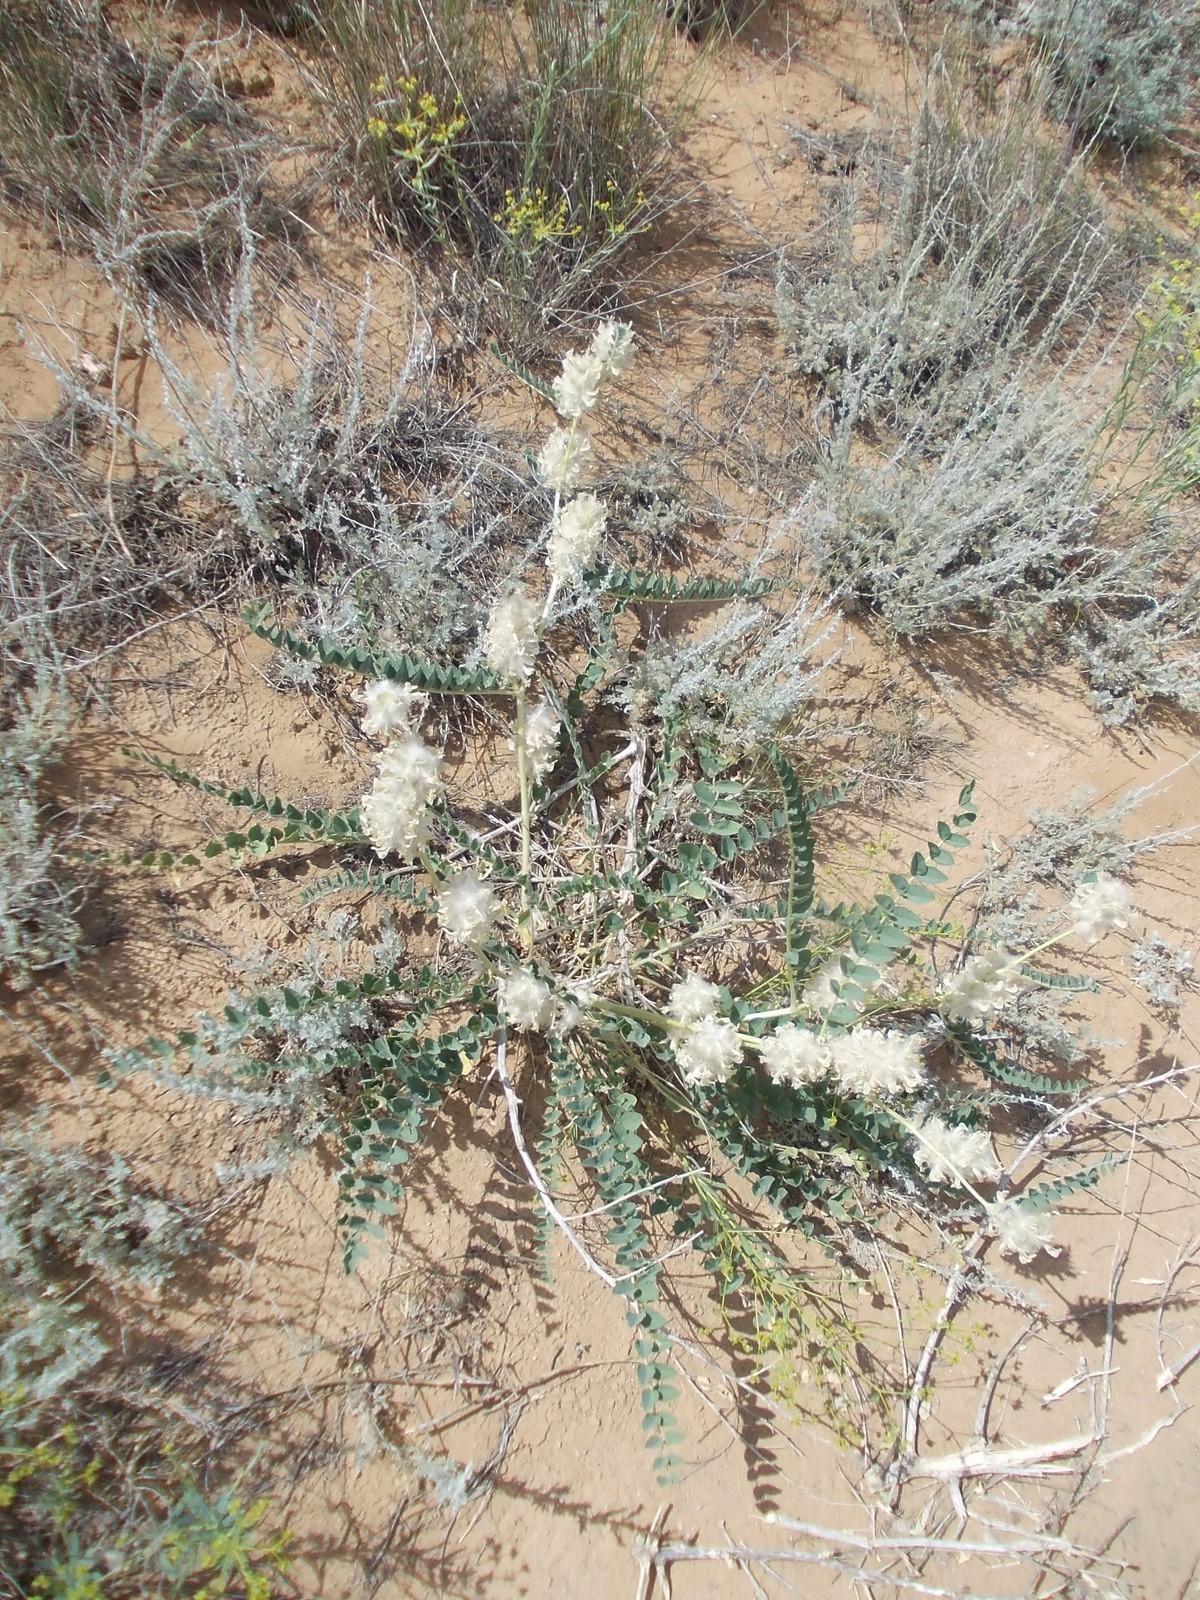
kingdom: Plantae
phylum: Tracheophyta
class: Magnoliopsida
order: Fabales
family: Fabaceae
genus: Astragalus
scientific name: Astragalus vulpinus
